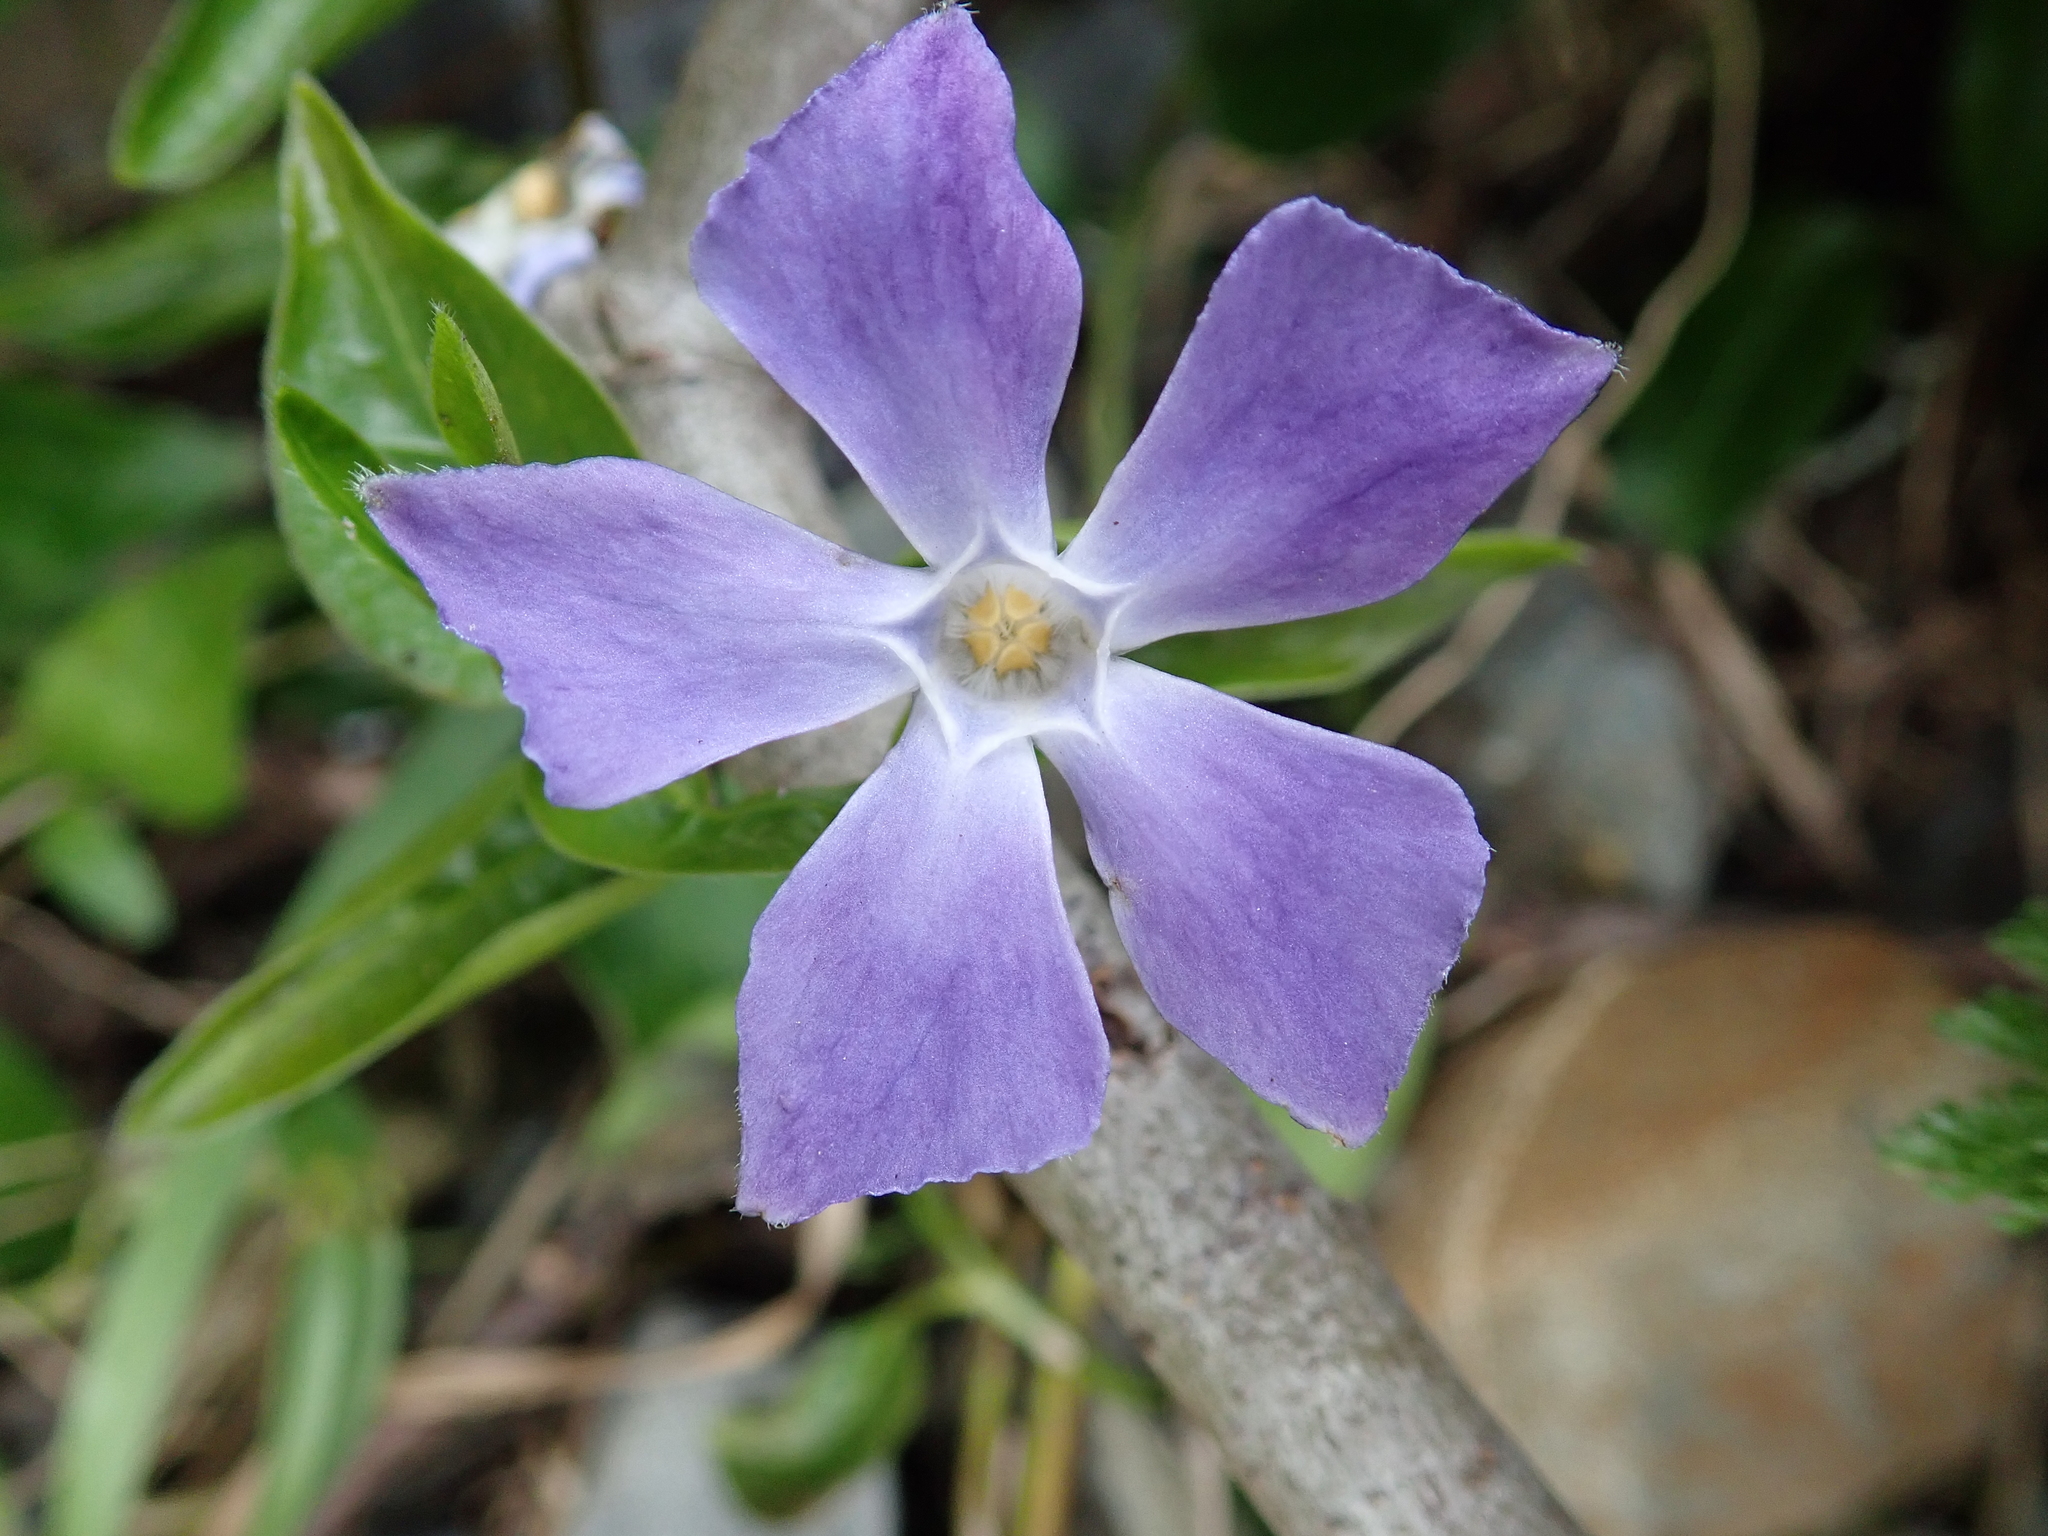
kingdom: Plantae
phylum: Tracheophyta
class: Magnoliopsida
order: Gentianales
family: Apocynaceae
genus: Vinca
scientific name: Vinca major
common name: Greater periwinkle
